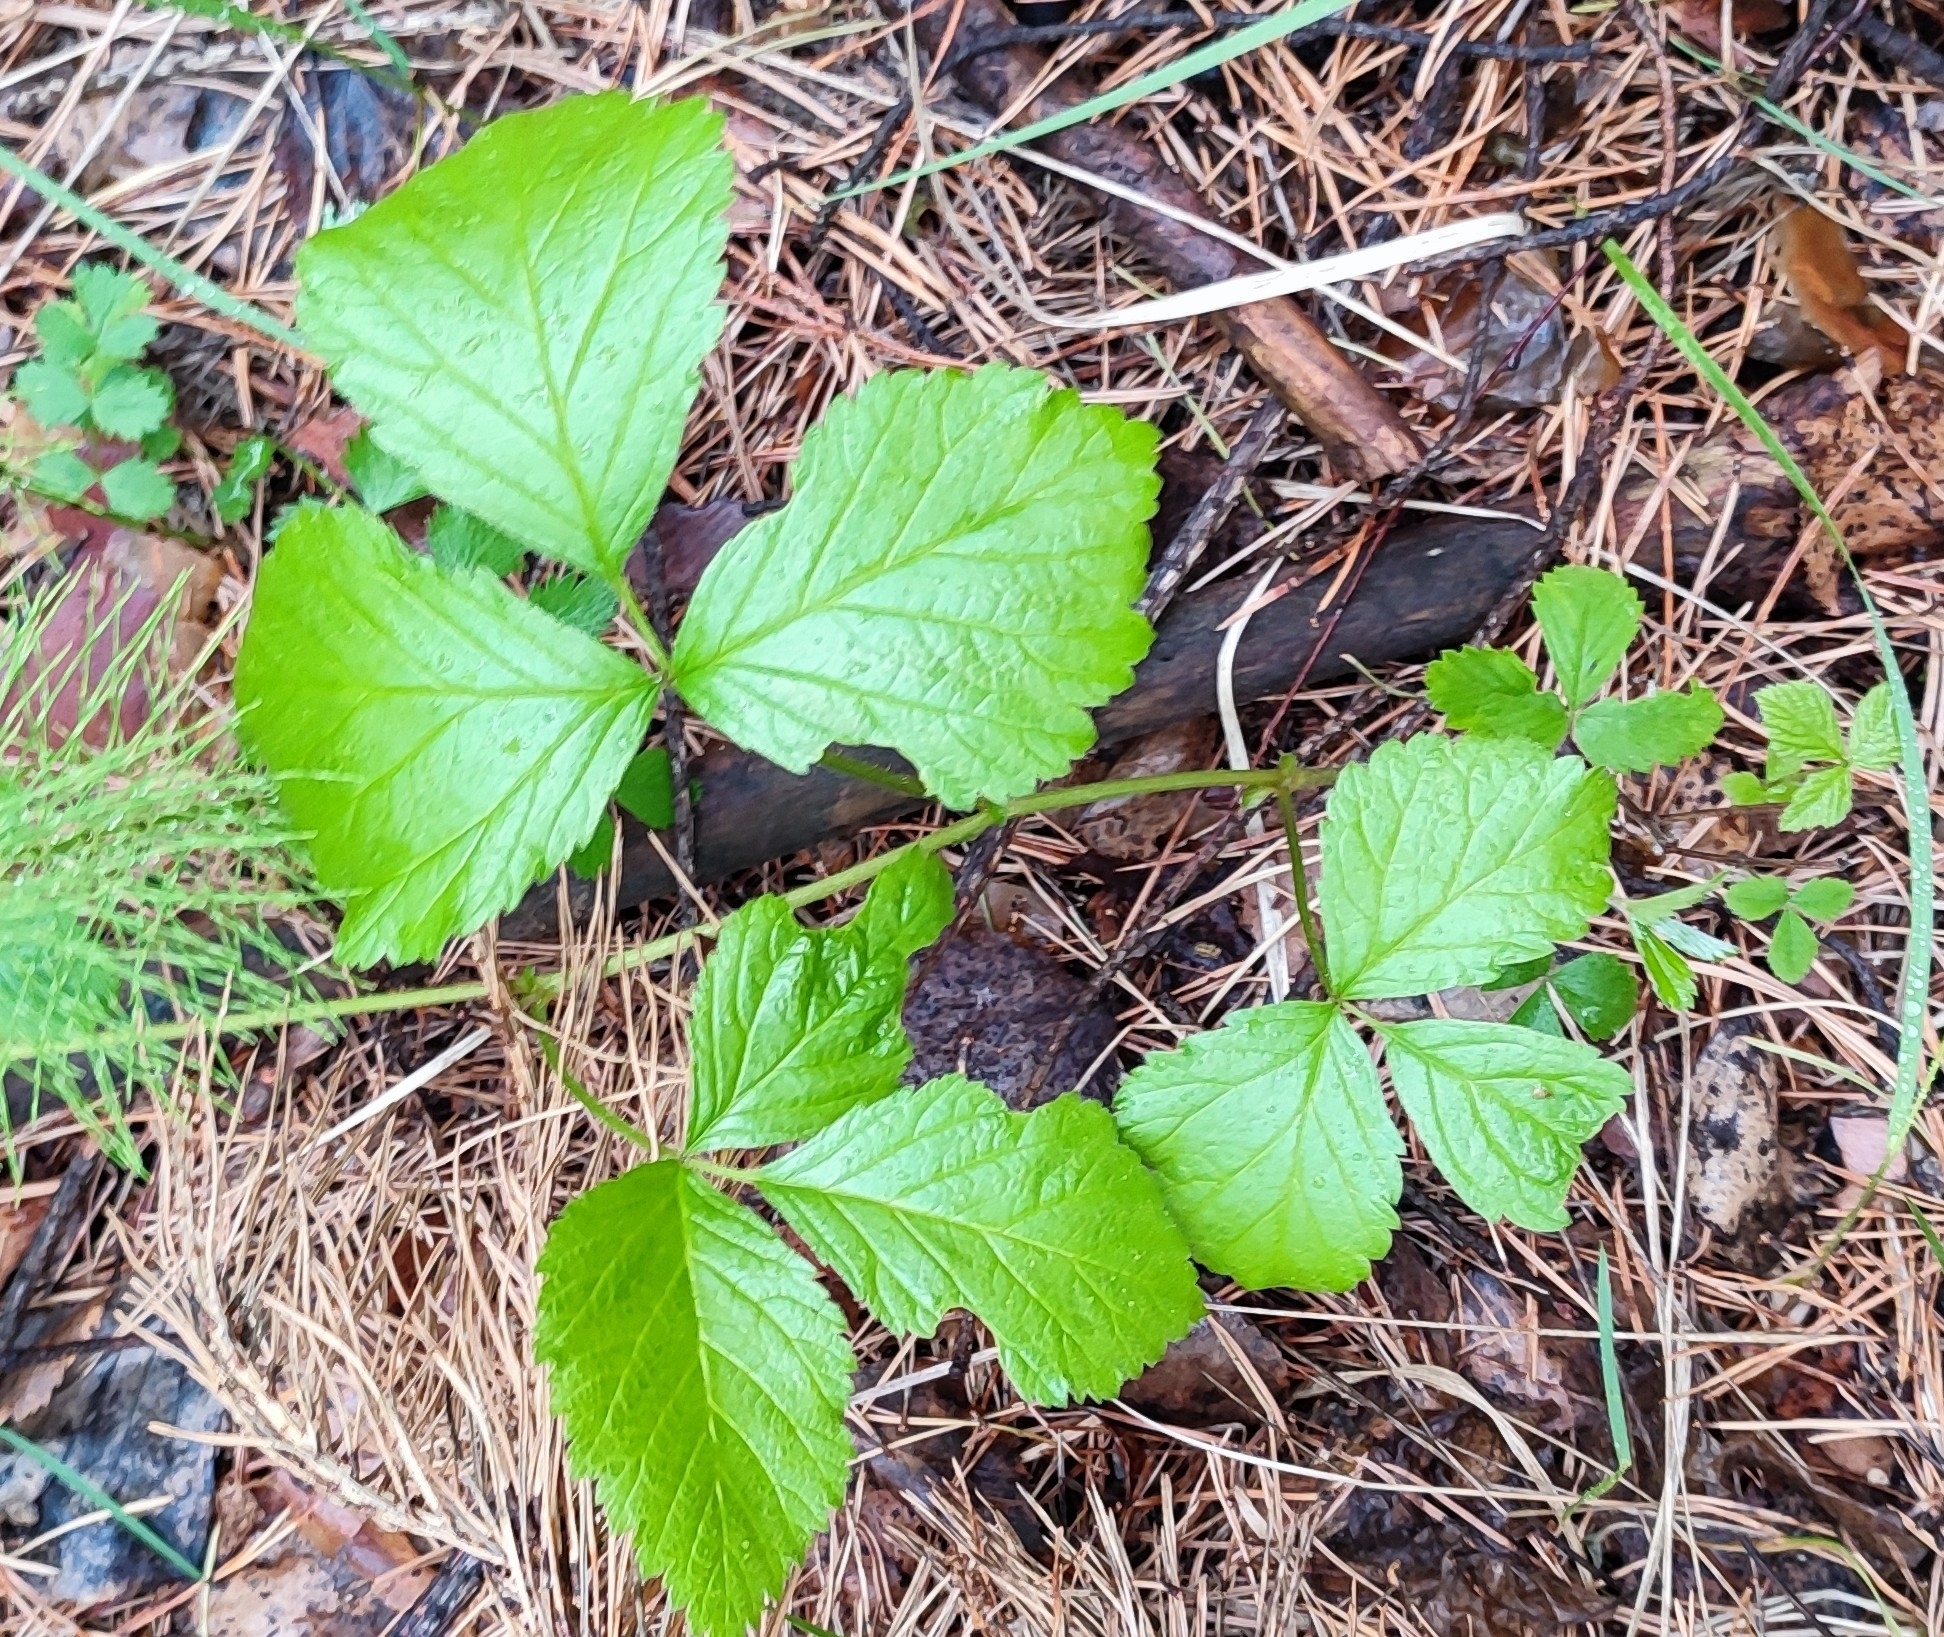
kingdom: Plantae
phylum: Tracheophyta
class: Magnoliopsida
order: Rosales
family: Rosaceae
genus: Rubus
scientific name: Rubus saxatilis
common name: Stone bramble
